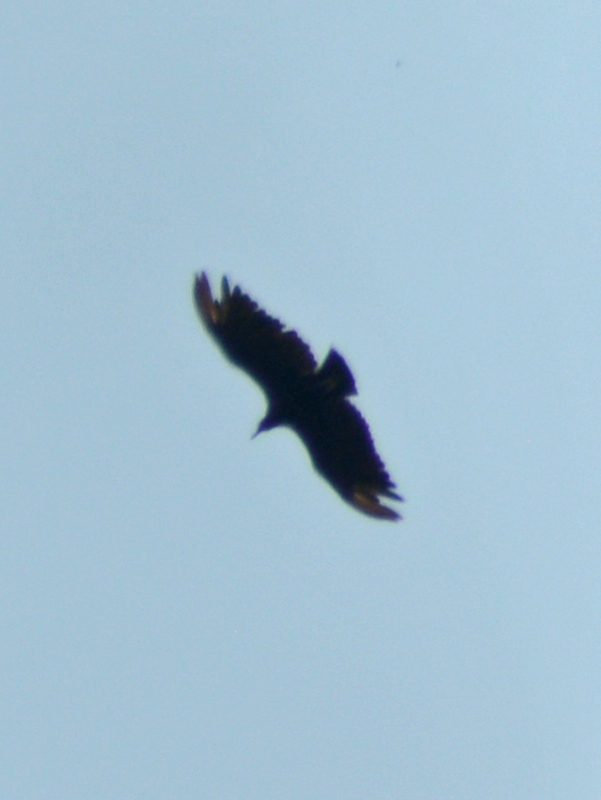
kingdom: Animalia
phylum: Chordata
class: Aves
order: Accipitriformes
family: Cathartidae
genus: Coragyps
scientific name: Coragyps atratus
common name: Black vulture
